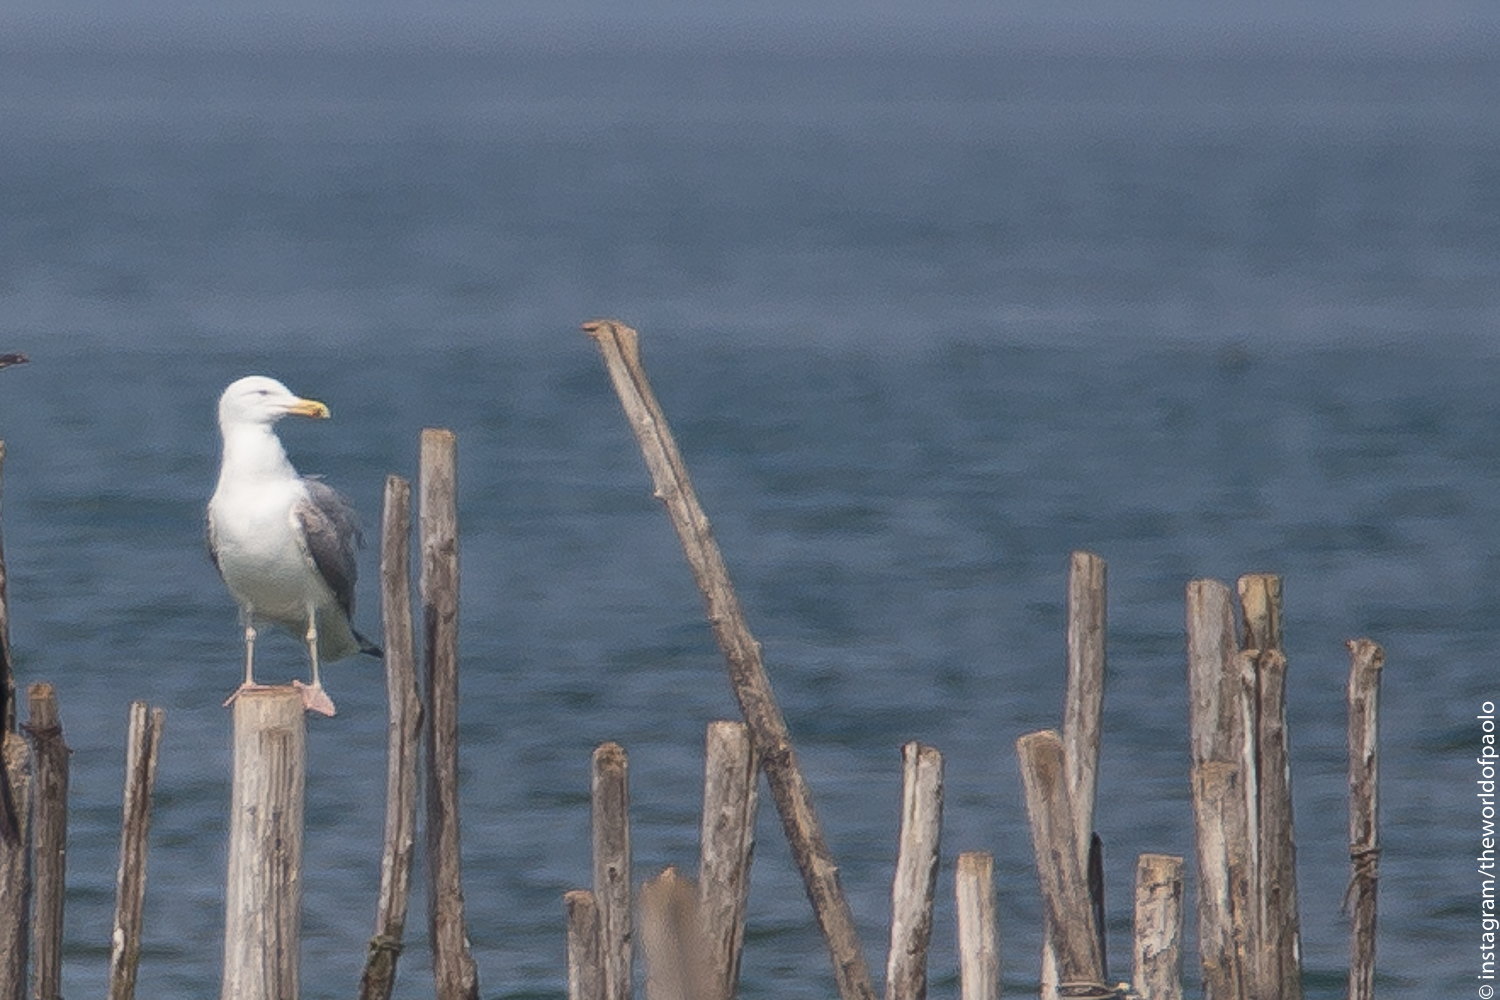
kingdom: Animalia
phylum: Chordata
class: Aves
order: Charadriiformes
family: Laridae
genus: Larus
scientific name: Larus cachinnans
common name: Caspian gull
